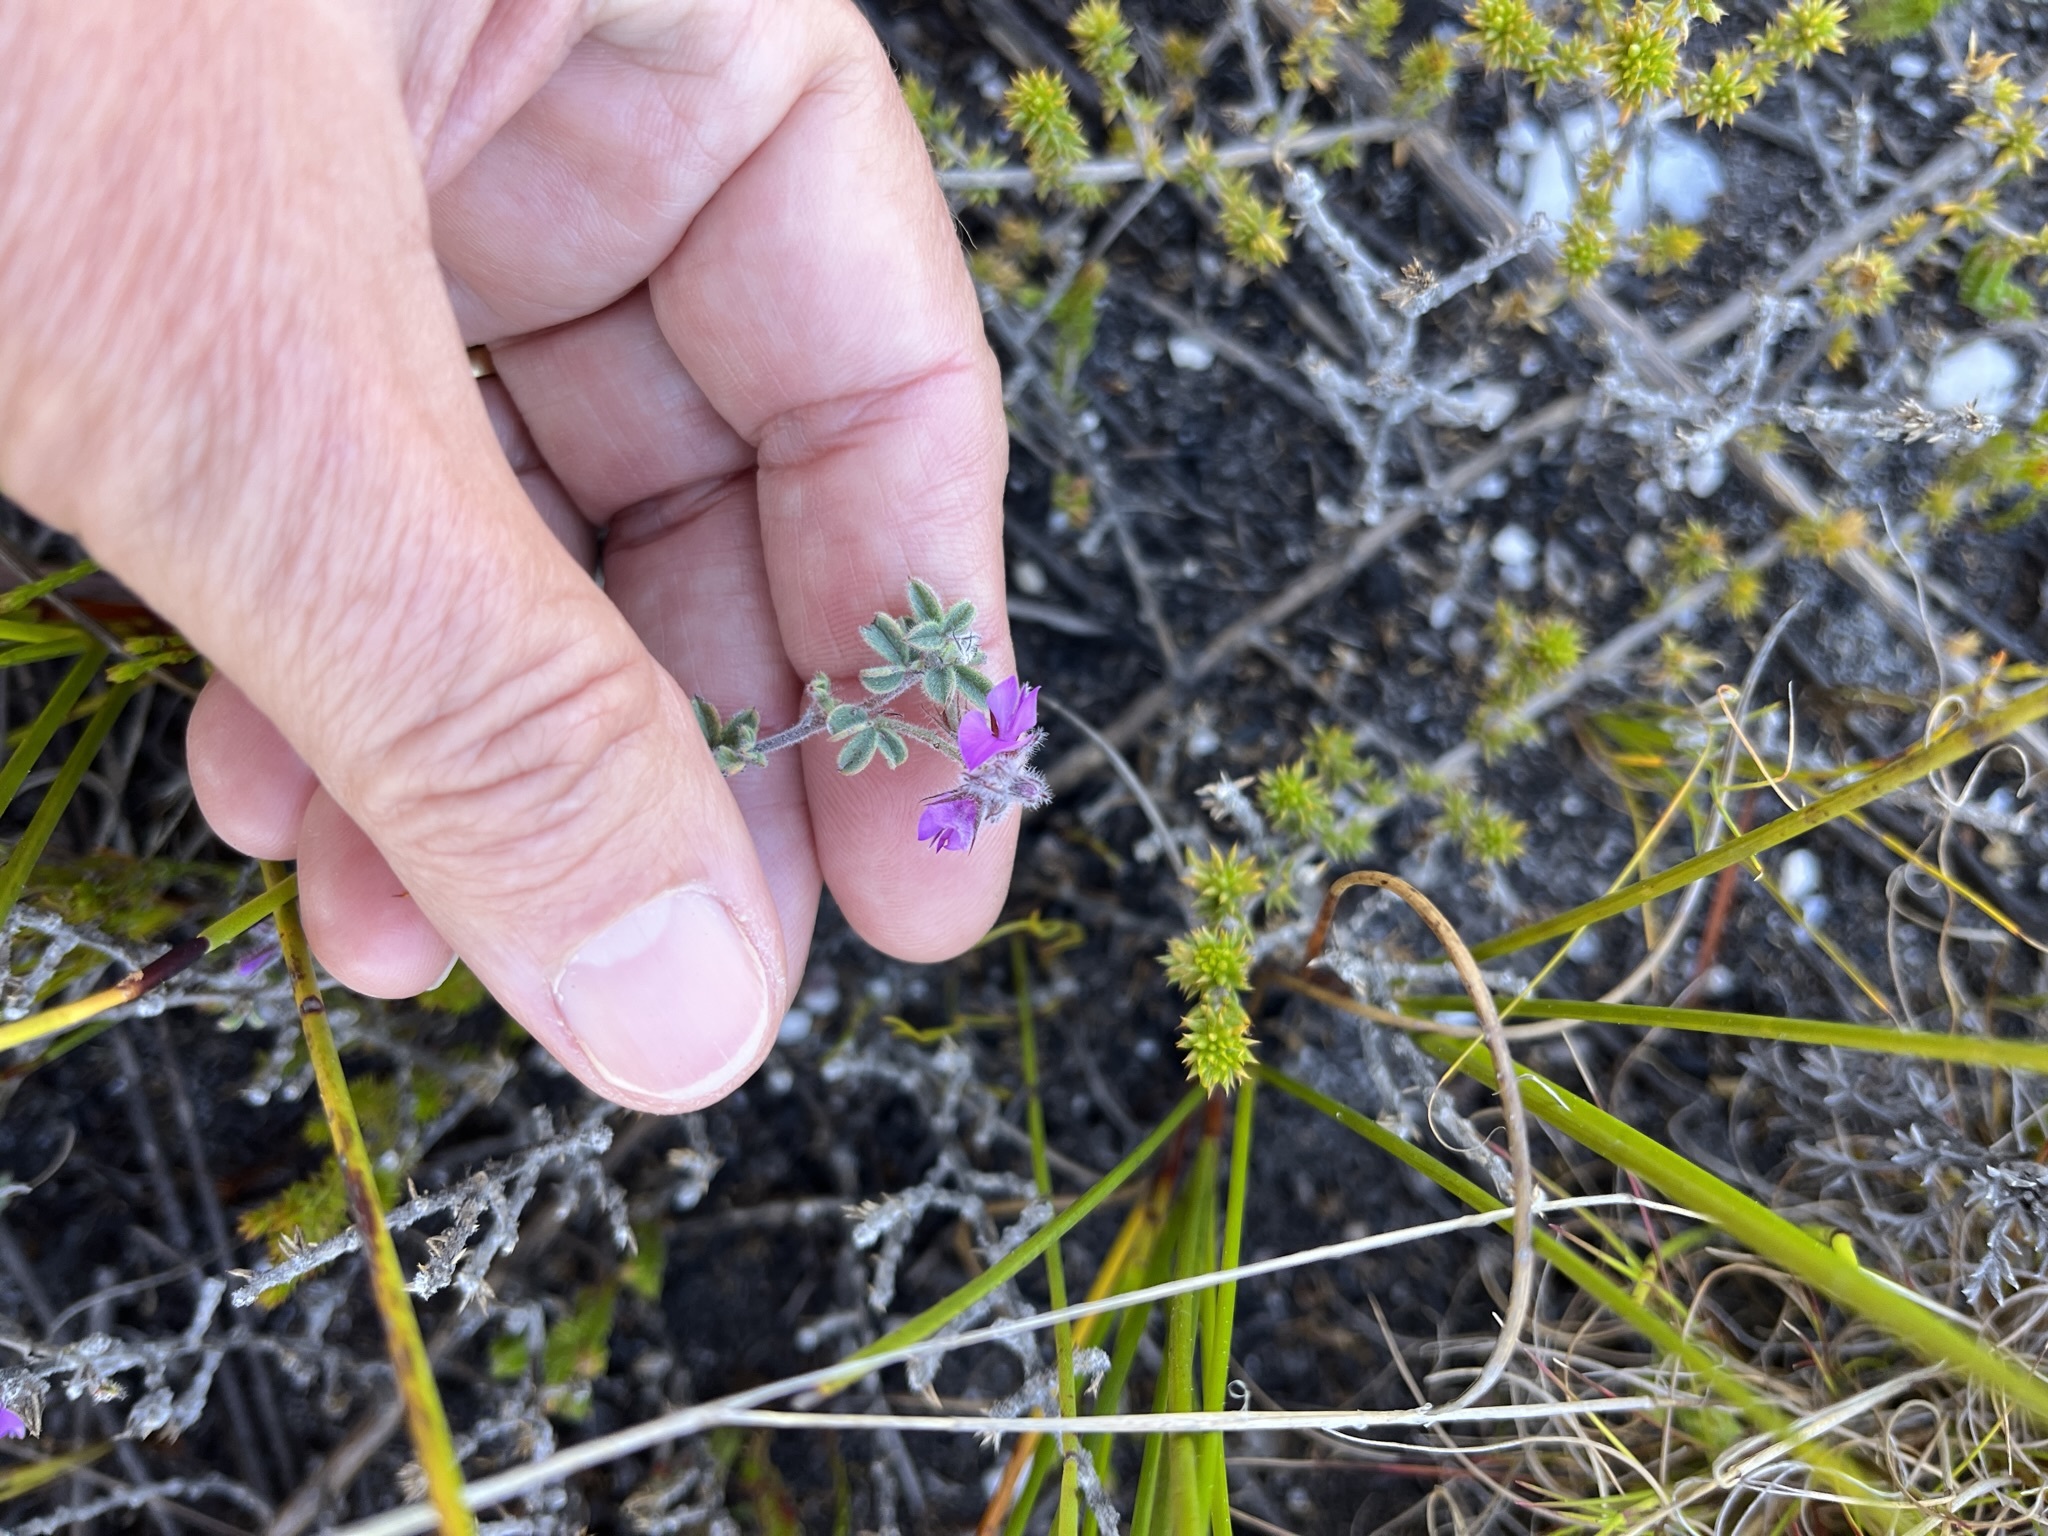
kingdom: Plantae
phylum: Tracheophyta
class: Magnoliopsida
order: Fabales
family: Fabaceae
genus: Indigofera
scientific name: Indigofera
